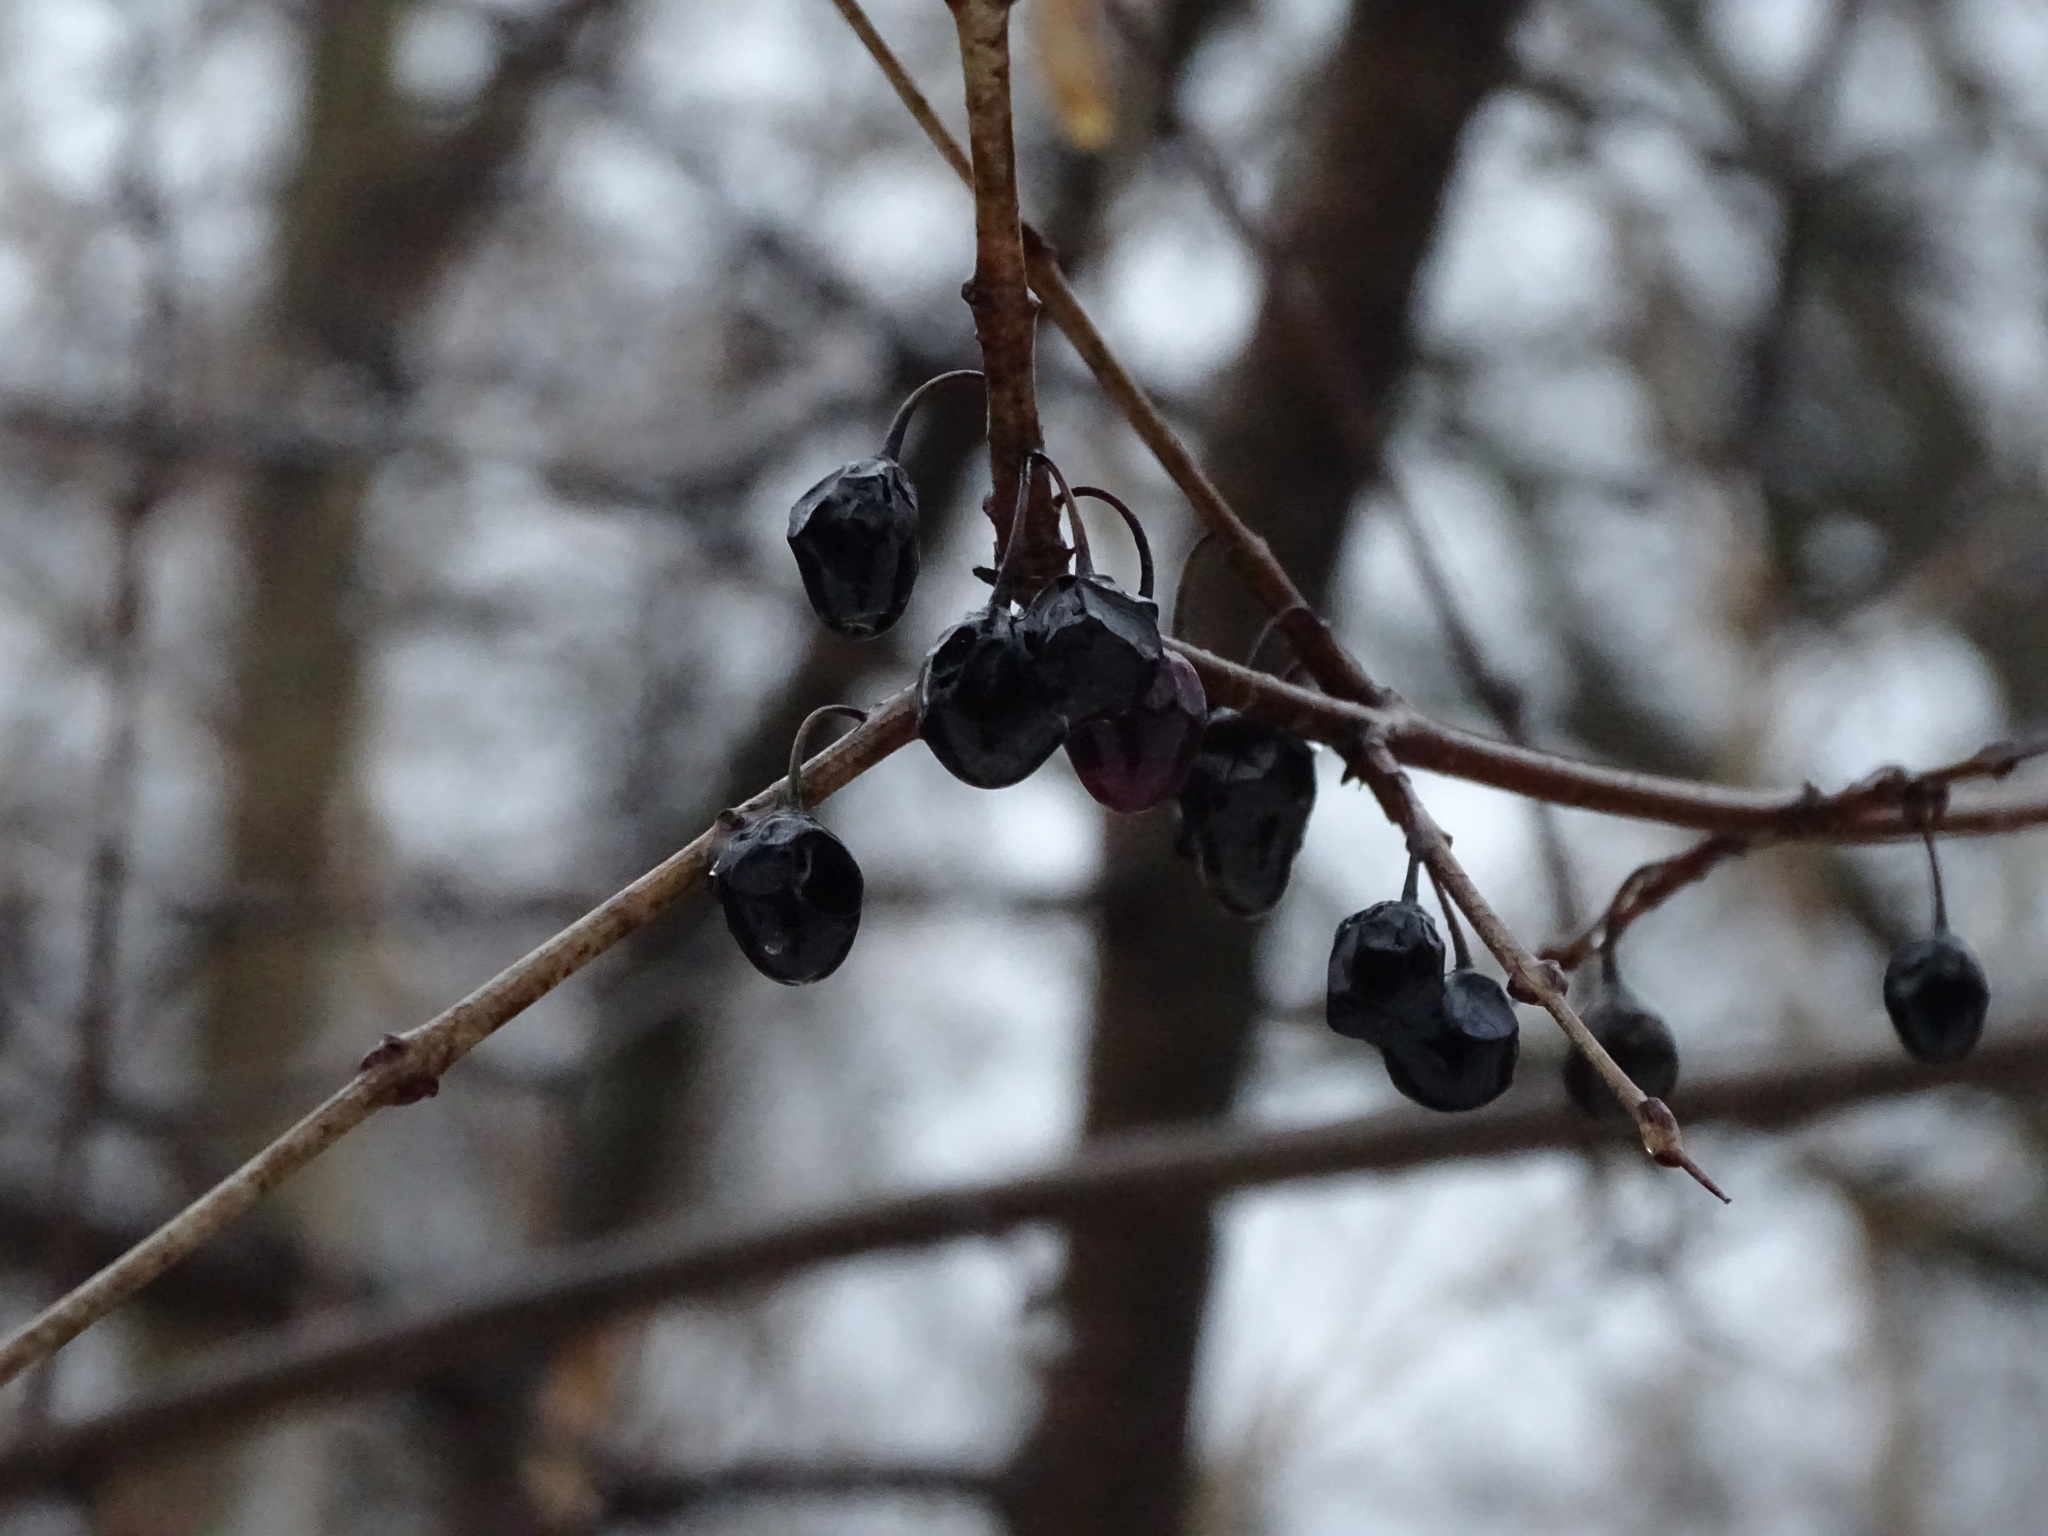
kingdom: Plantae
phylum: Tracheophyta
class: Magnoliopsida
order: Rosales
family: Rhamnaceae
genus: Rhamnus
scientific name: Rhamnus cathartica
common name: Common buckthorn
